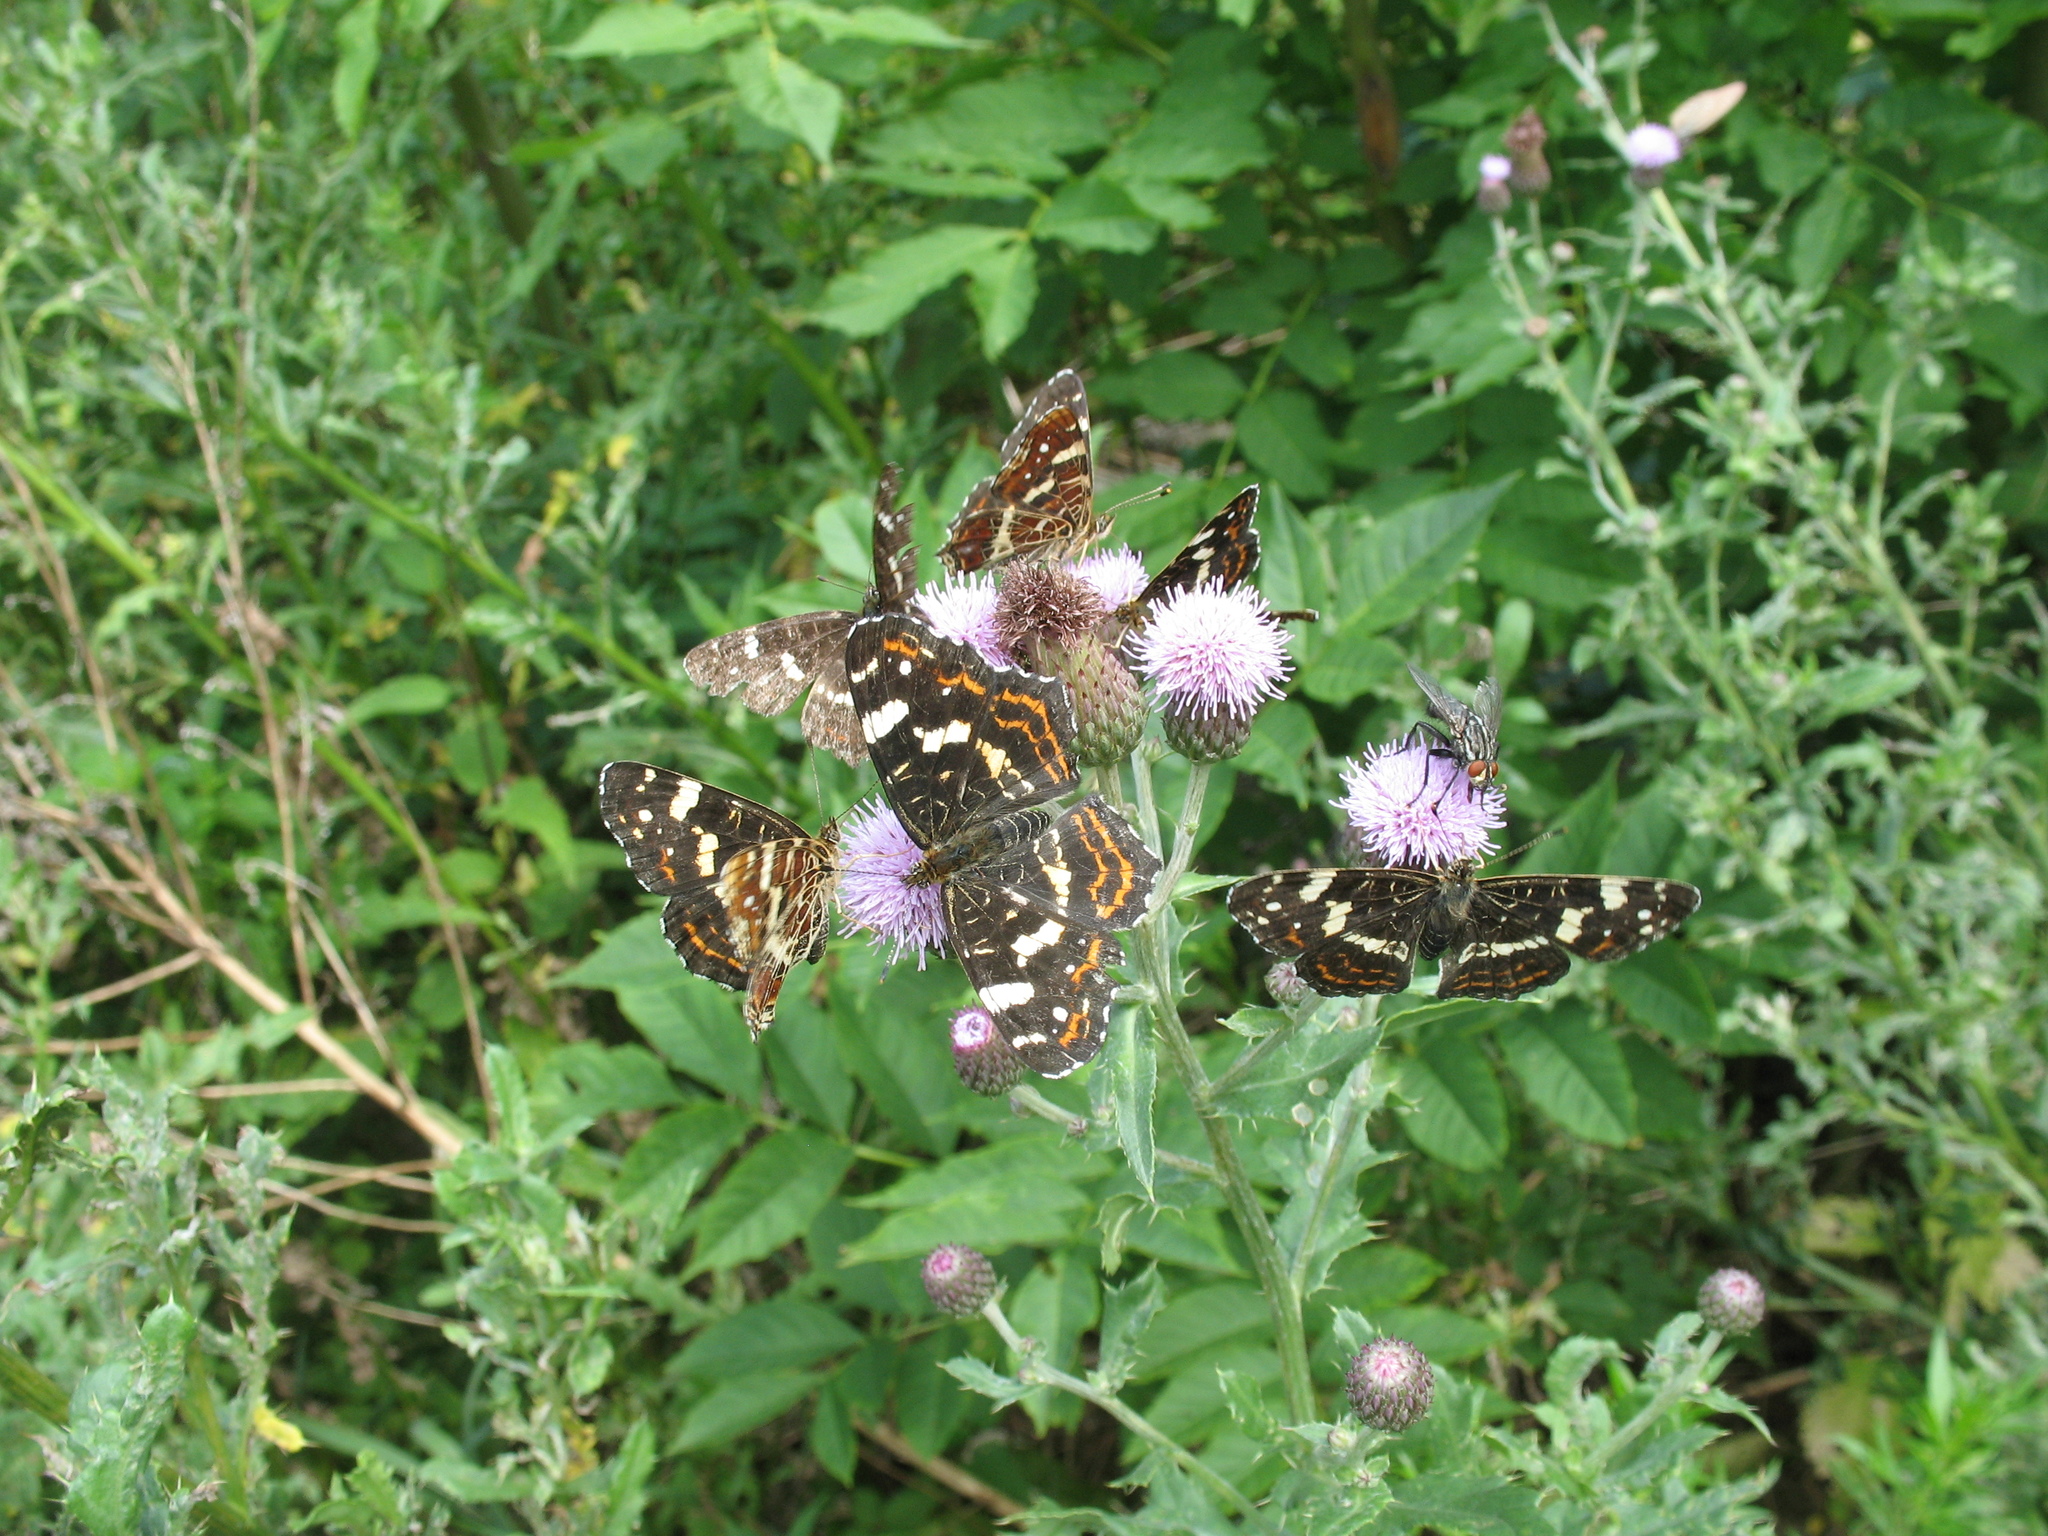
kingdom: Animalia
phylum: Arthropoda
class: Insecta
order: Lepidoptera
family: Nymphalidae
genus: Araschnia
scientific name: Araschnia levana
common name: Map butterfly
